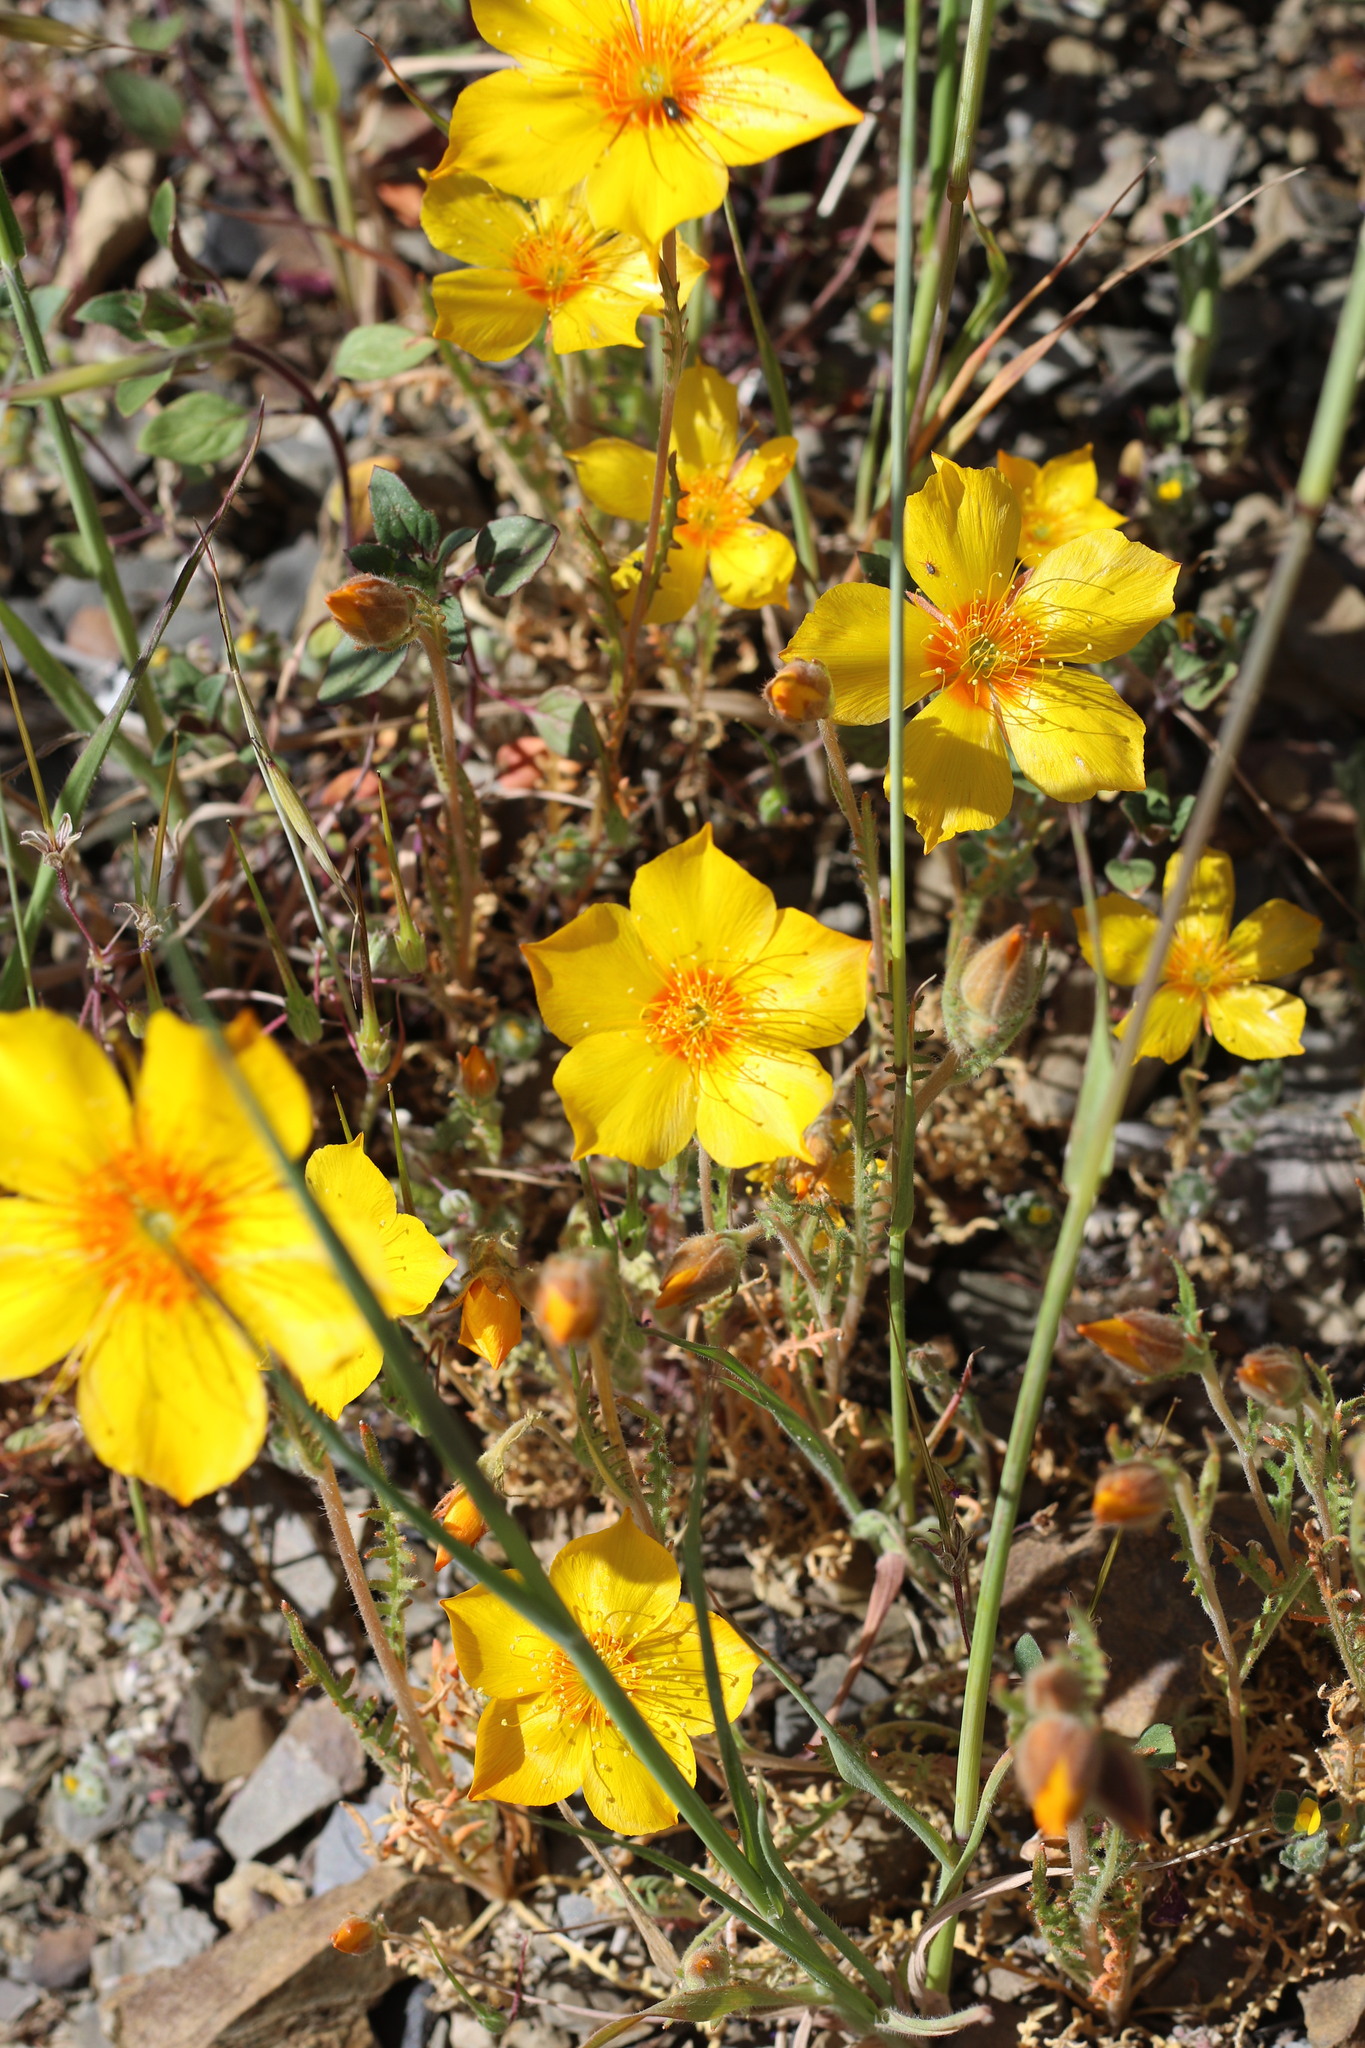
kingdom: Plantae
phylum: Tracheophyta
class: Magnoliopsida
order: Cornales
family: Loasaceae
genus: Mentzelia
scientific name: Mentzelia lindleyi
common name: Golden bartonia
